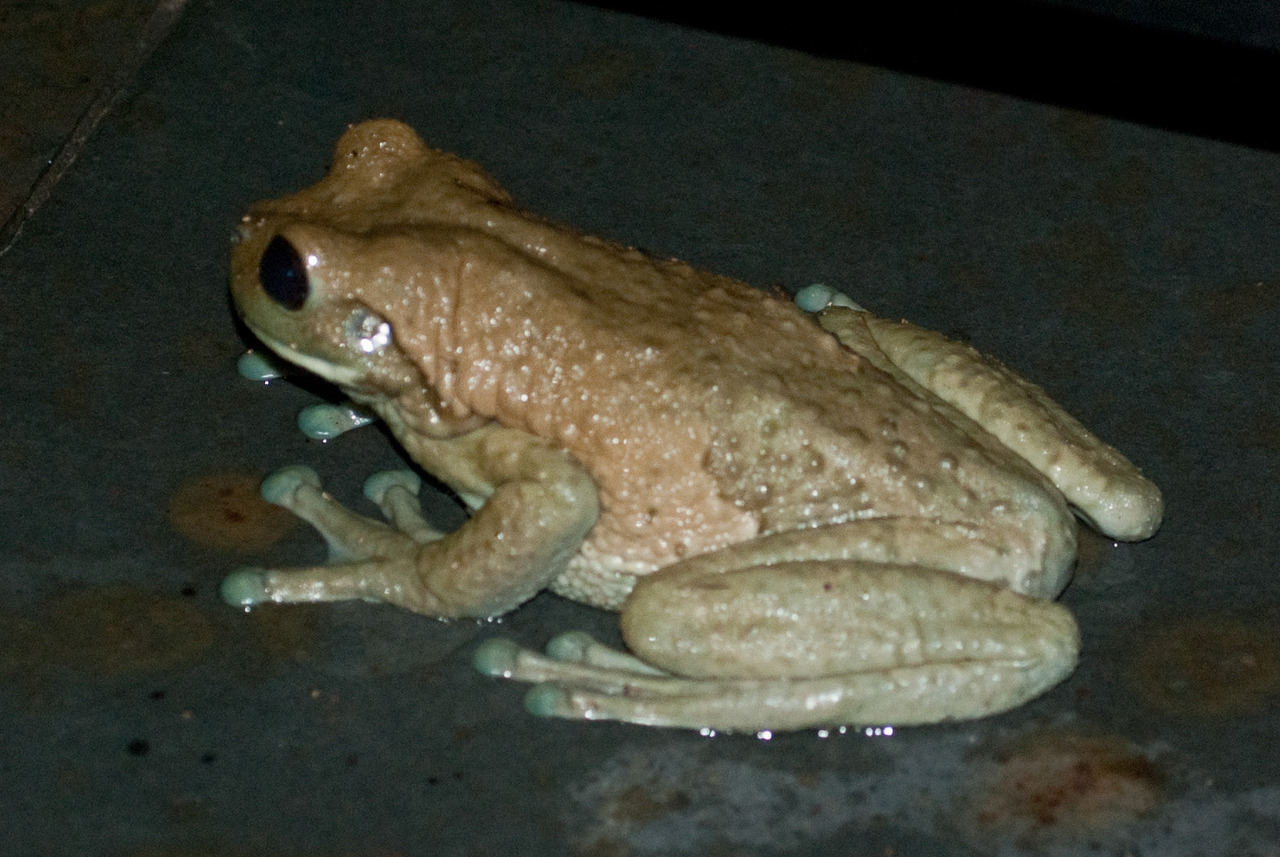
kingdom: Animalia
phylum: Chordata
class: Amphibia
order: Anura
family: Hylidae
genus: Trachycephalus
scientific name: Trachycephalus vermiculatus
